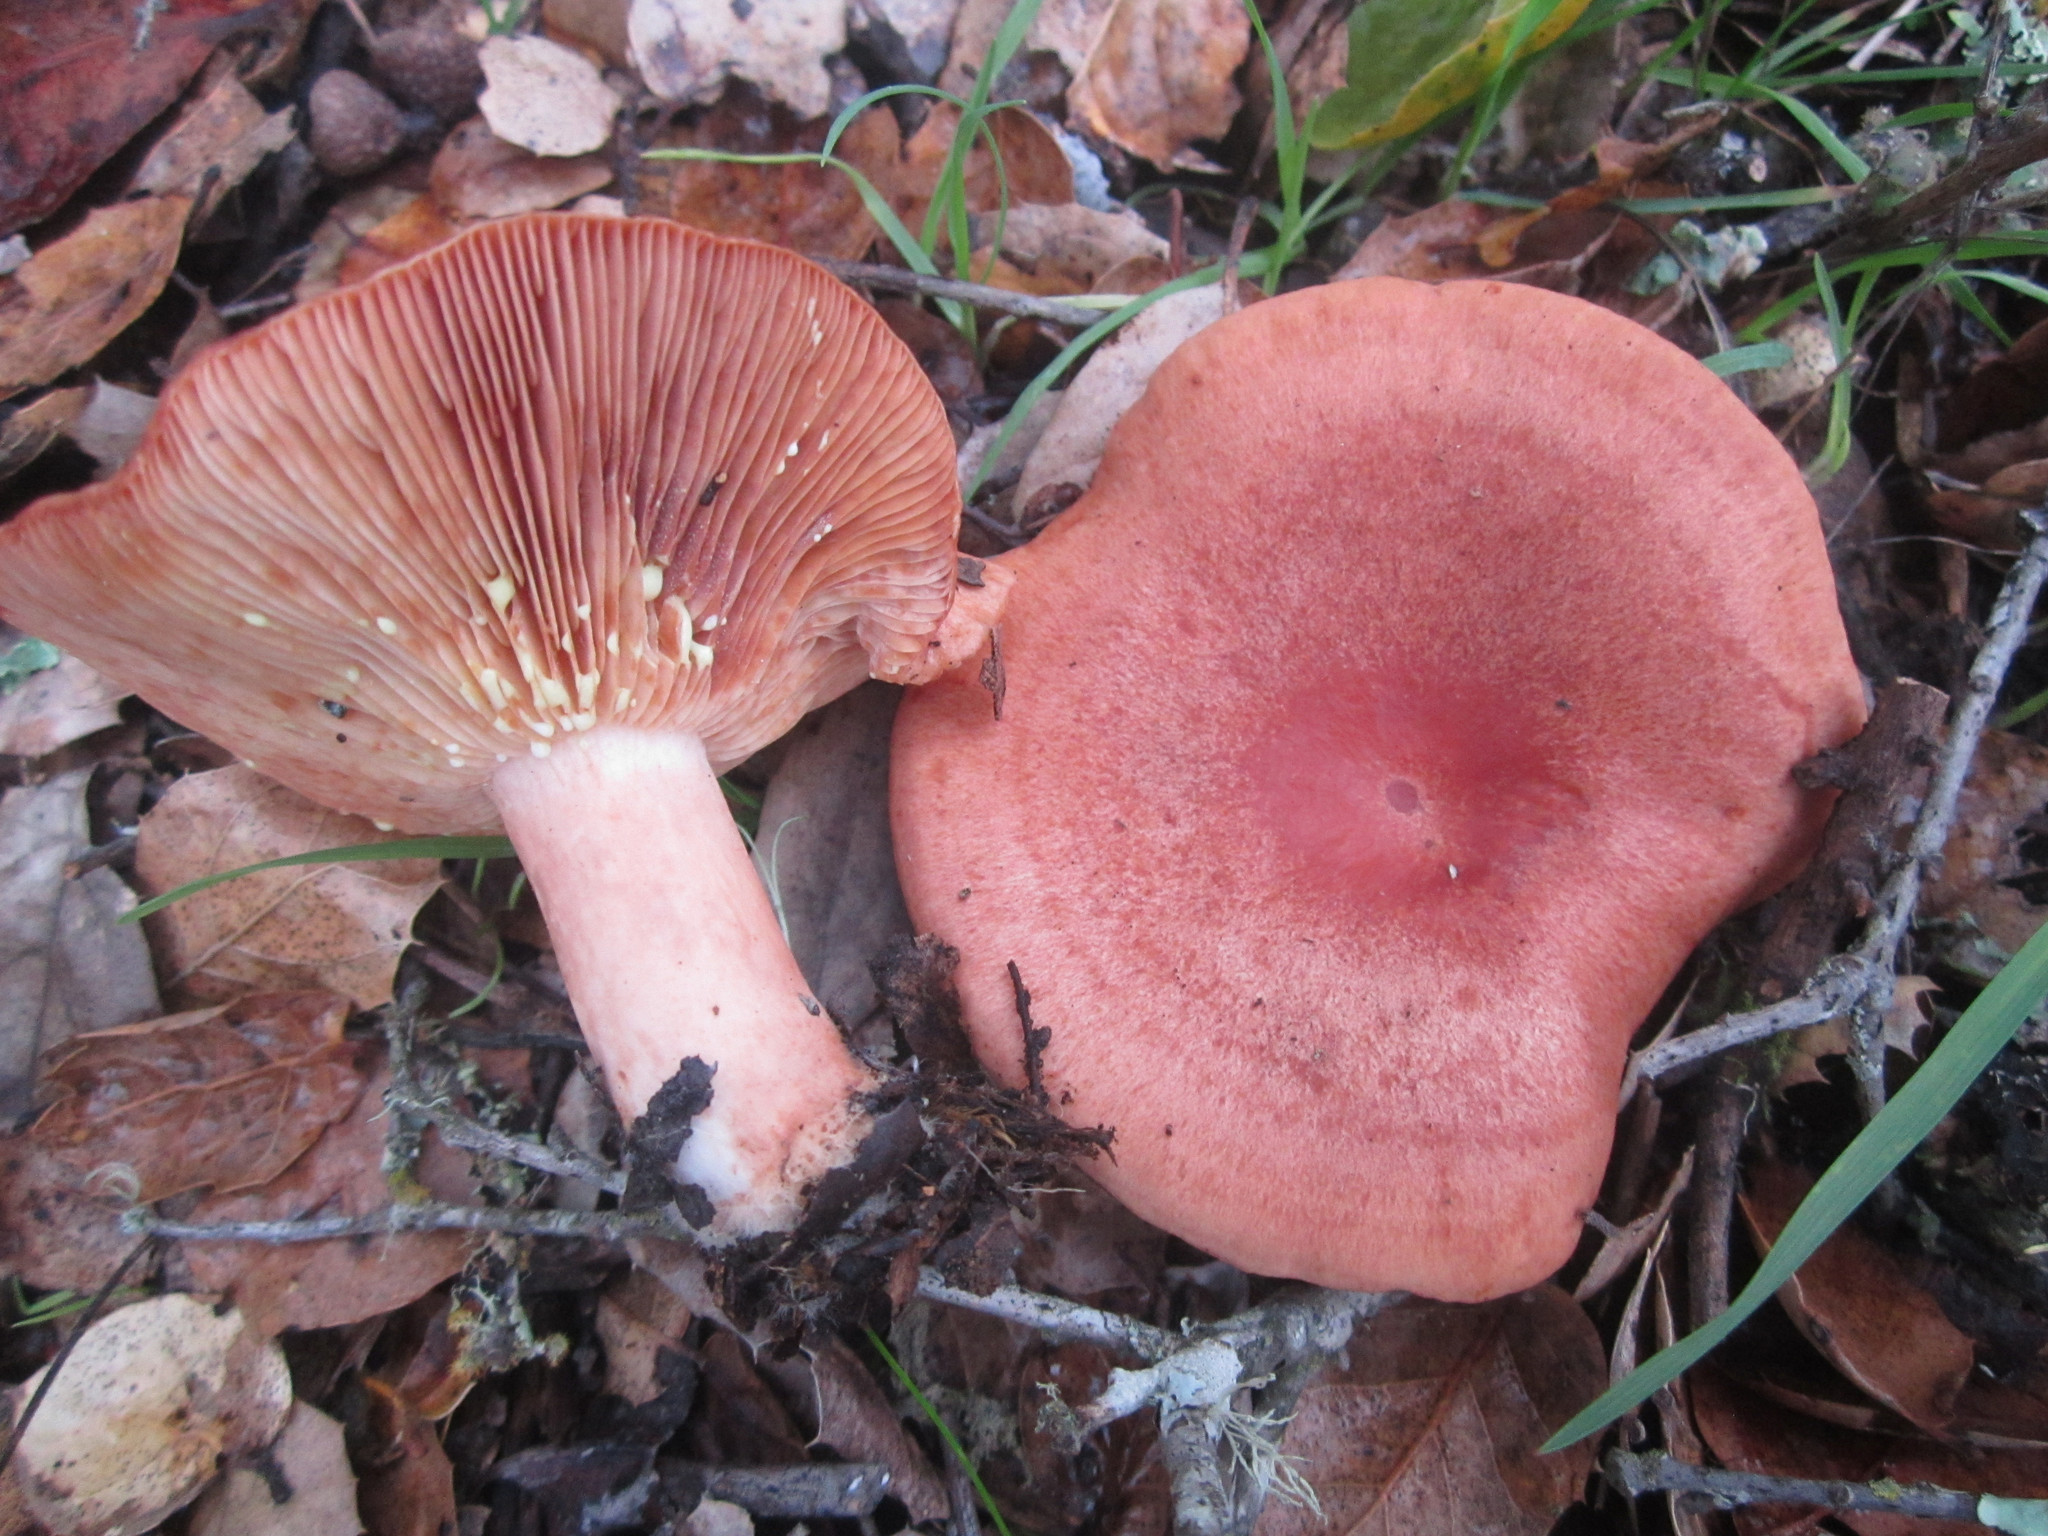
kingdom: Fungi
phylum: Basidiomycota
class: Agaricomycetes
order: Russulales
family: Russulaceae
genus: Lactarius
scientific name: Lactarius xanthogalactus
